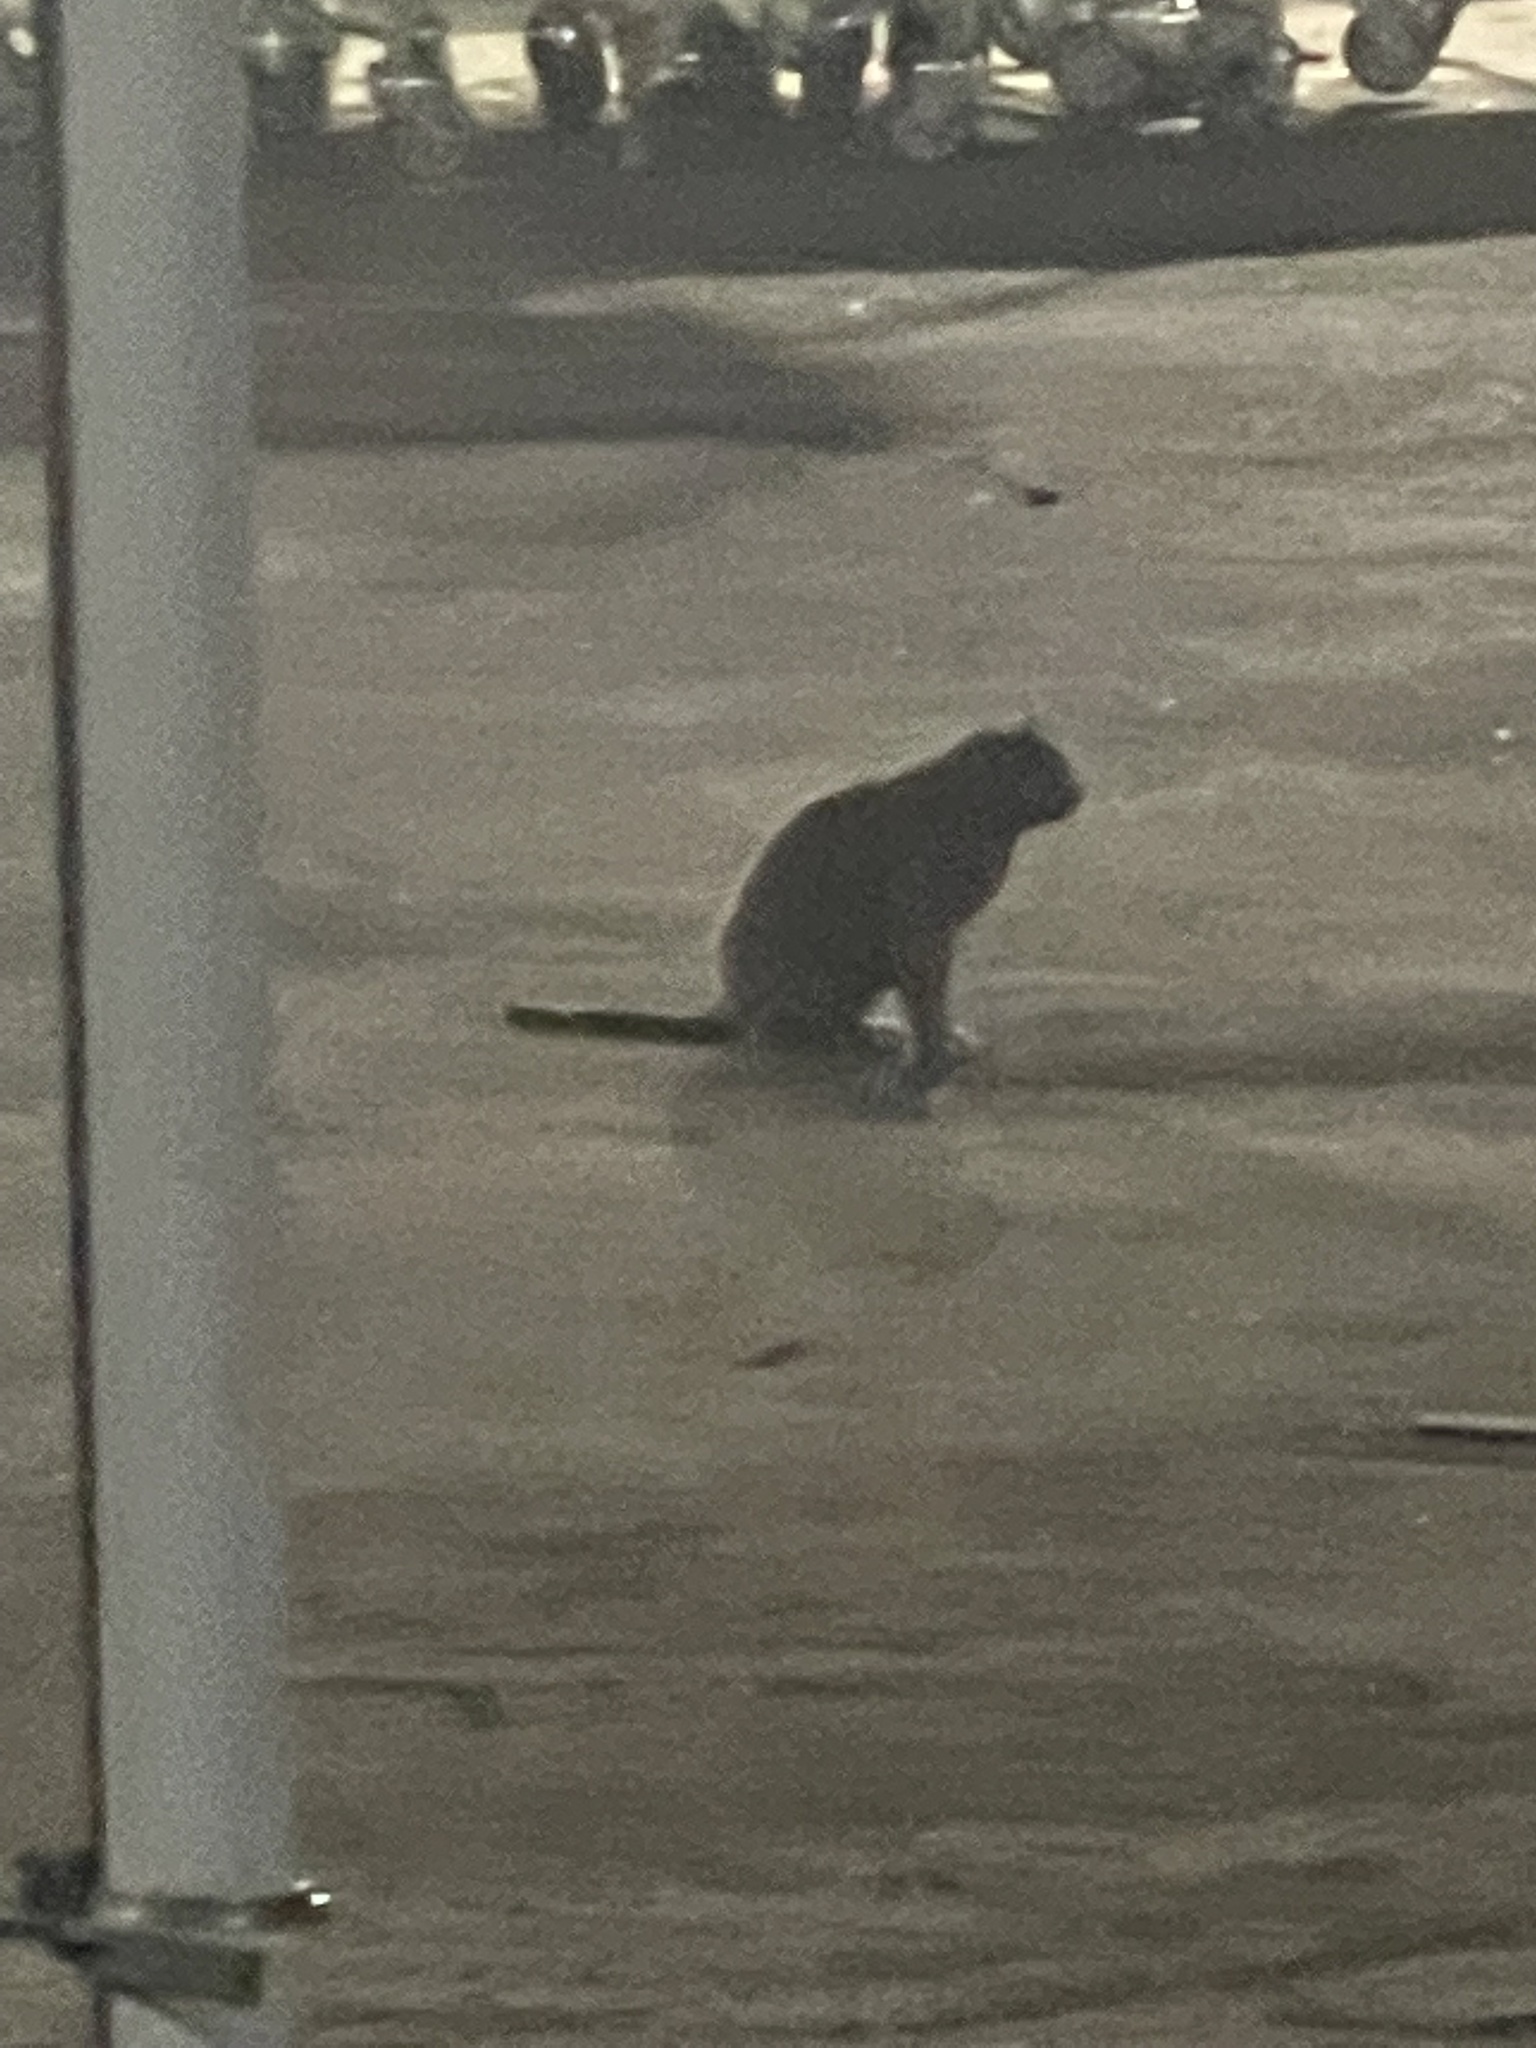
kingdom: Animalia
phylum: Chordata
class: Mammalia
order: Carnivora
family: Felidae
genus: Felis
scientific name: Felis catus
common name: Domestic cat
